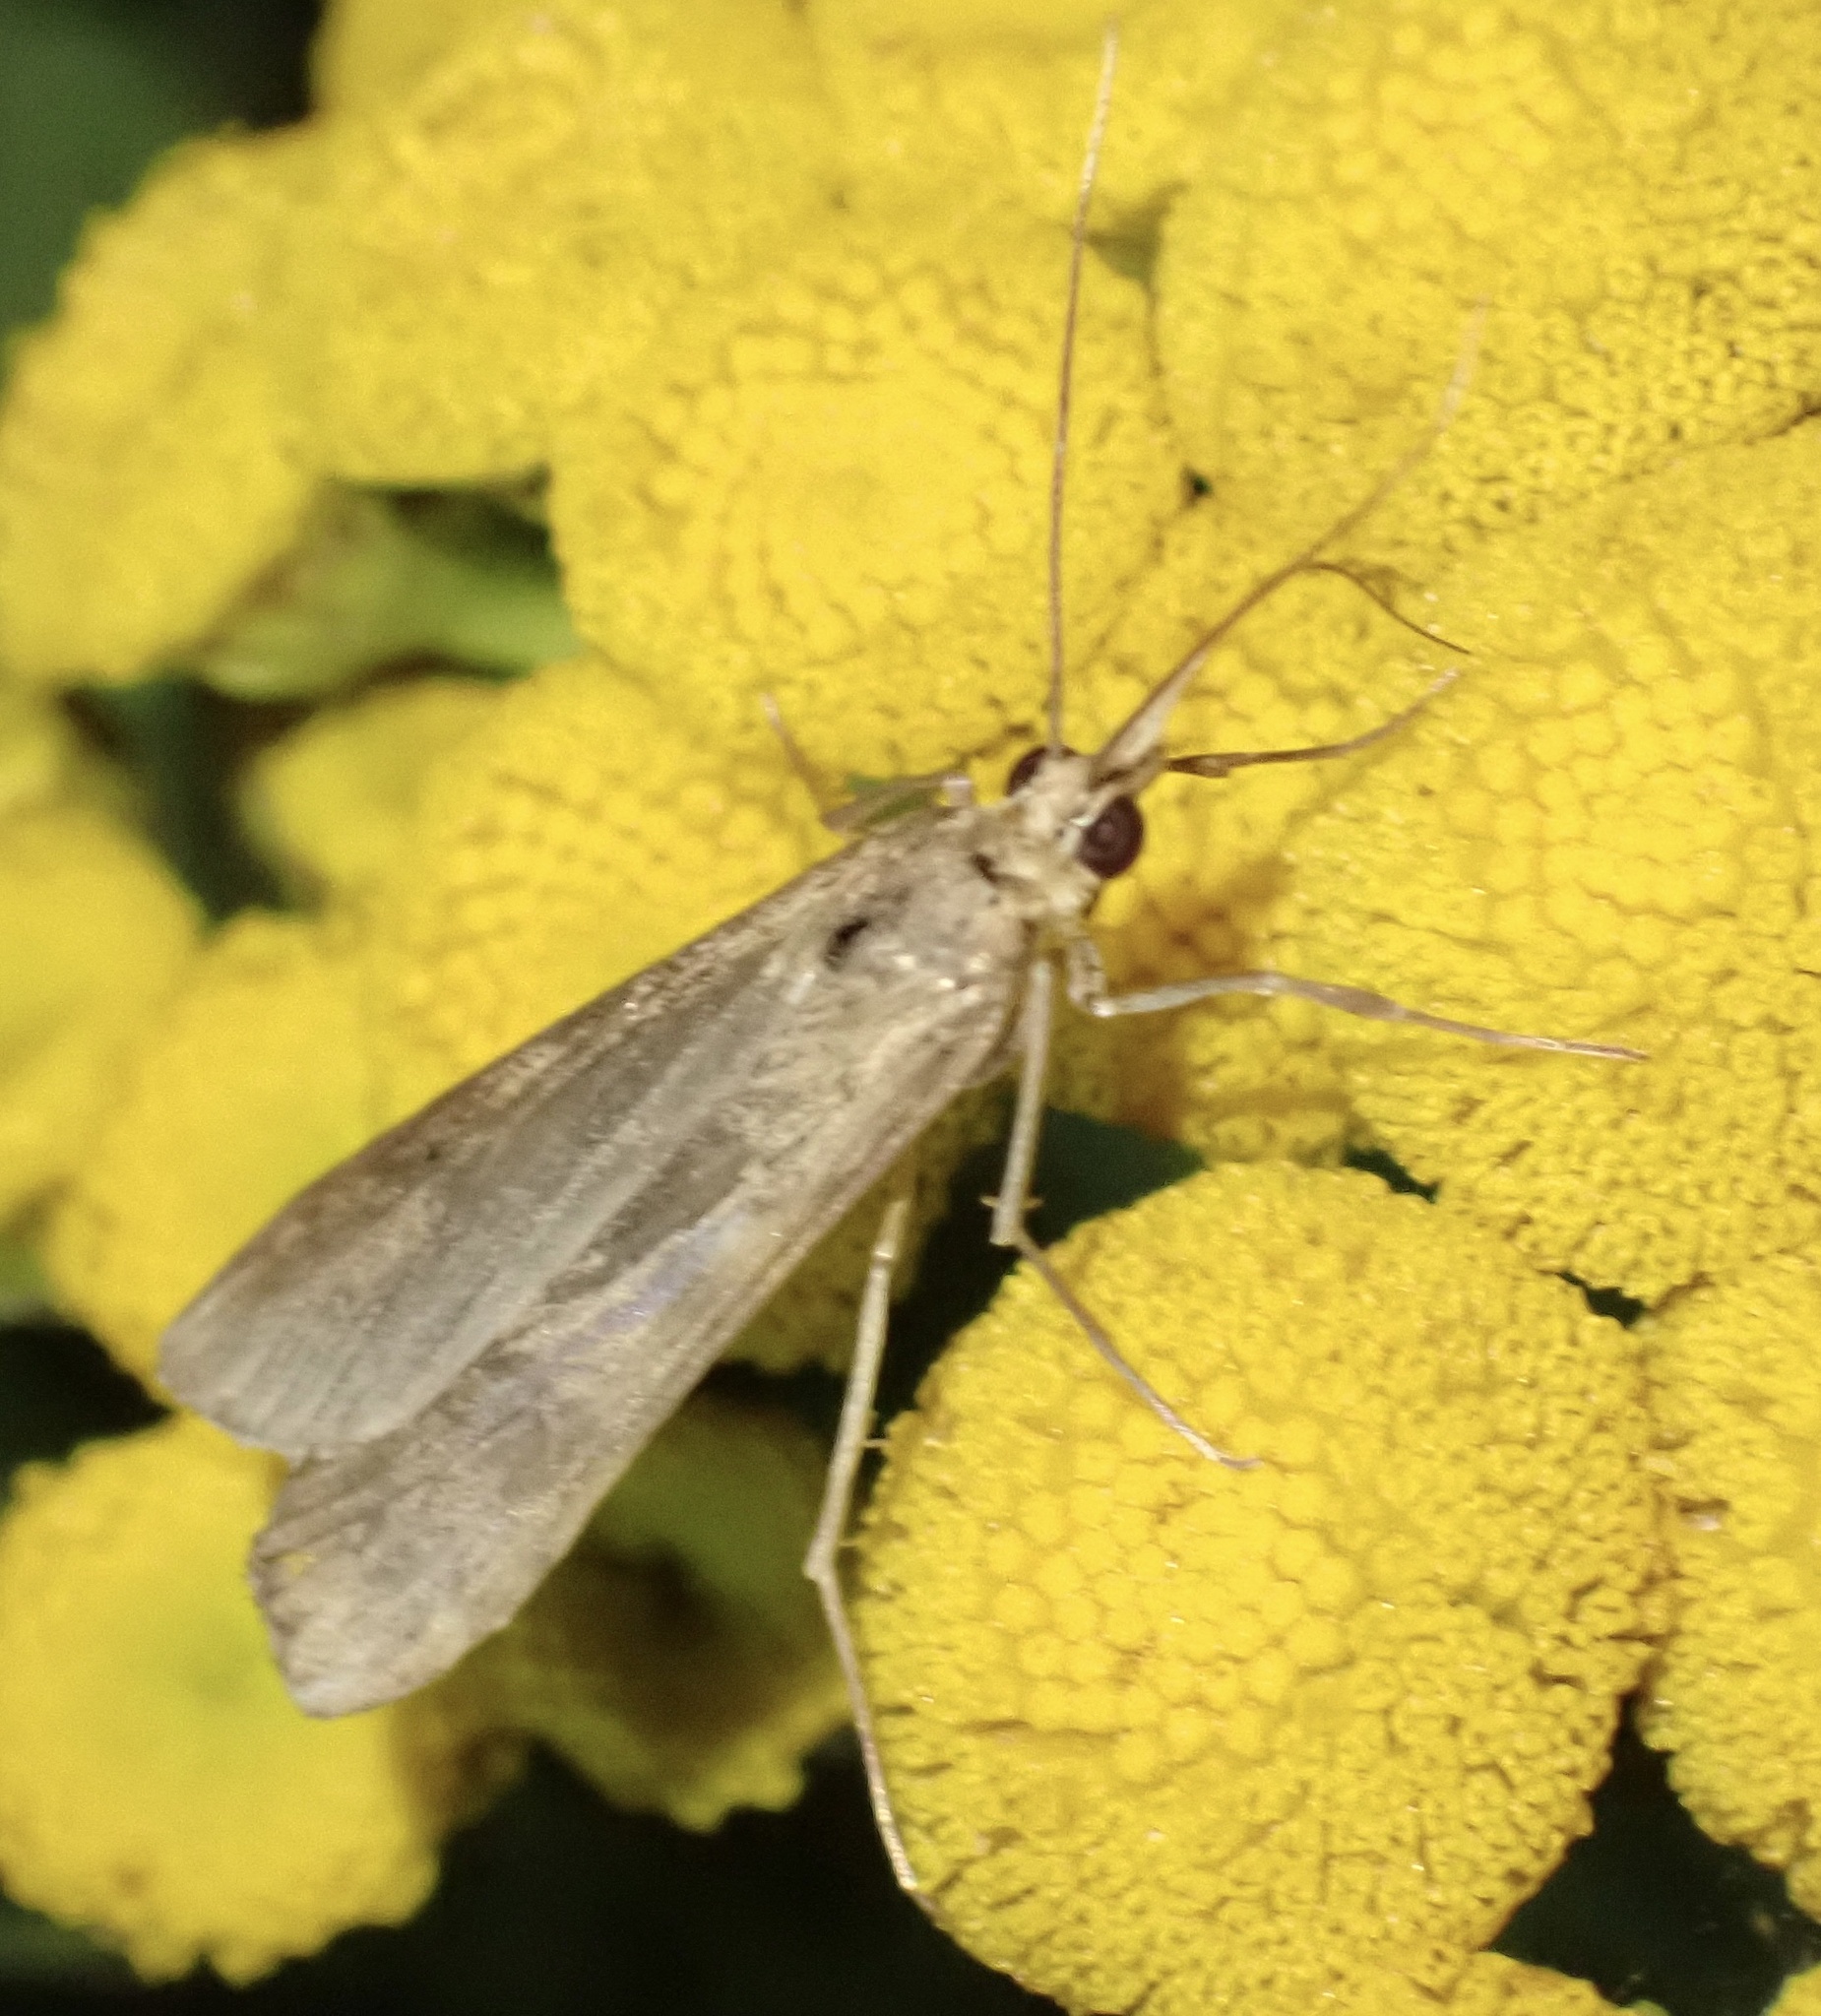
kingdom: Animalia
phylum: Arthropoda
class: Insecta
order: Lepidoptera
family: Crambidae
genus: Nomophila
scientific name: Nomophila noctuella
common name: Rush veneer
